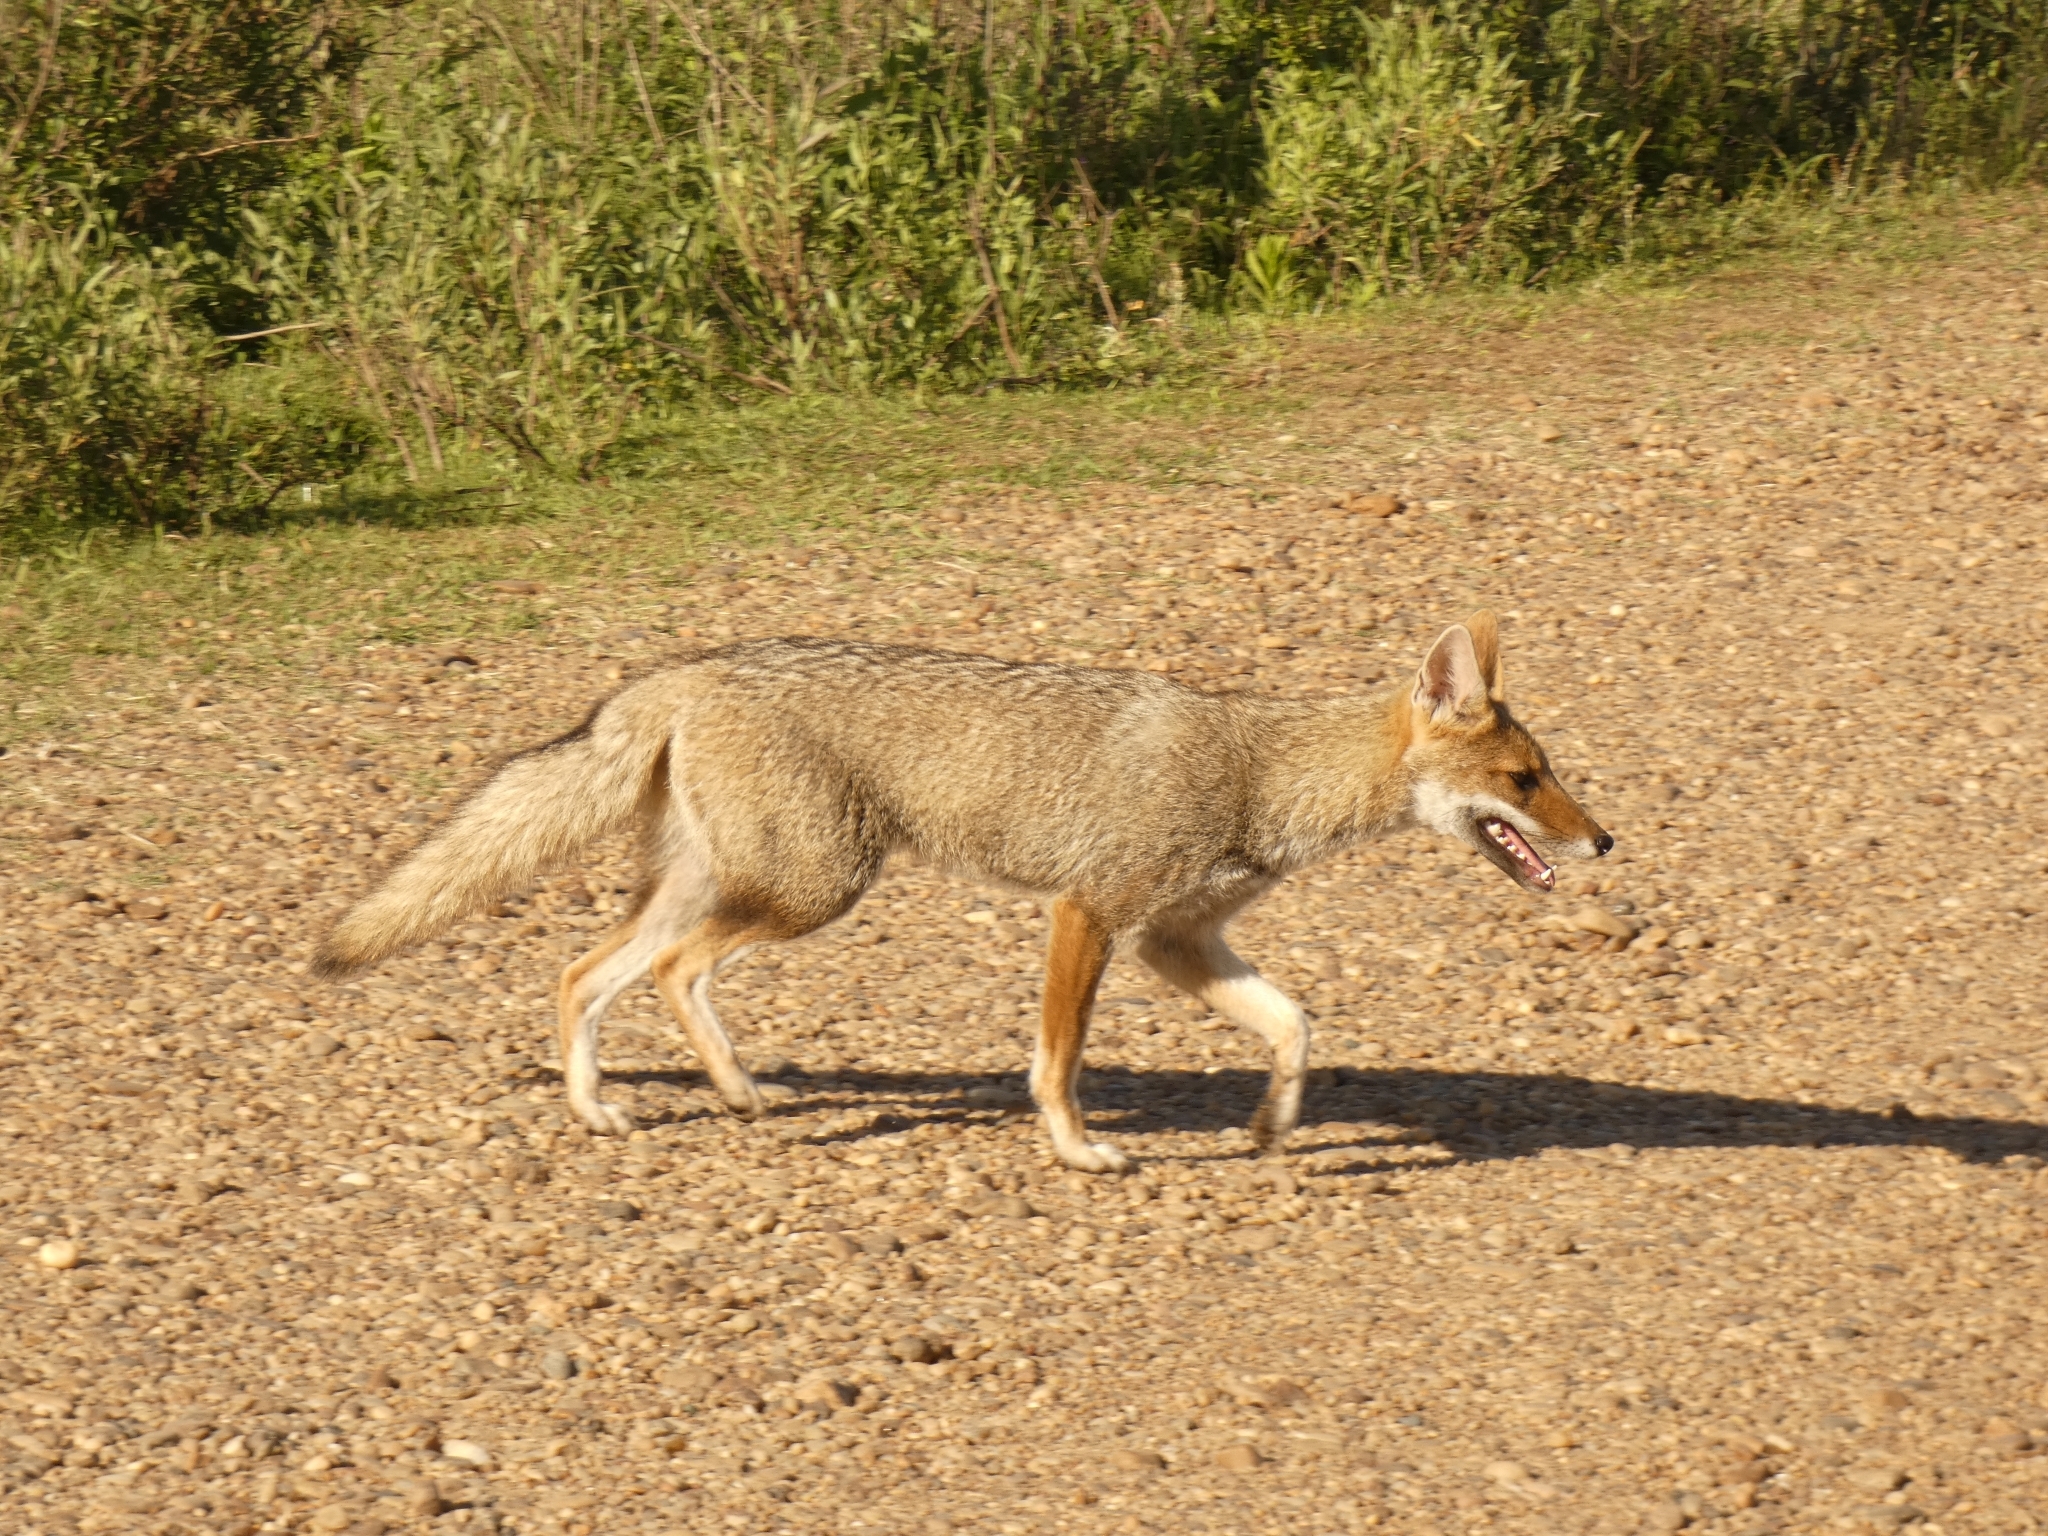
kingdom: Animalia
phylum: Chordata
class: Mammalia
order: Carnivora
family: Canidae
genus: Lycalopex
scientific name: Lycalopex gymnocercus
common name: Pampas fox
